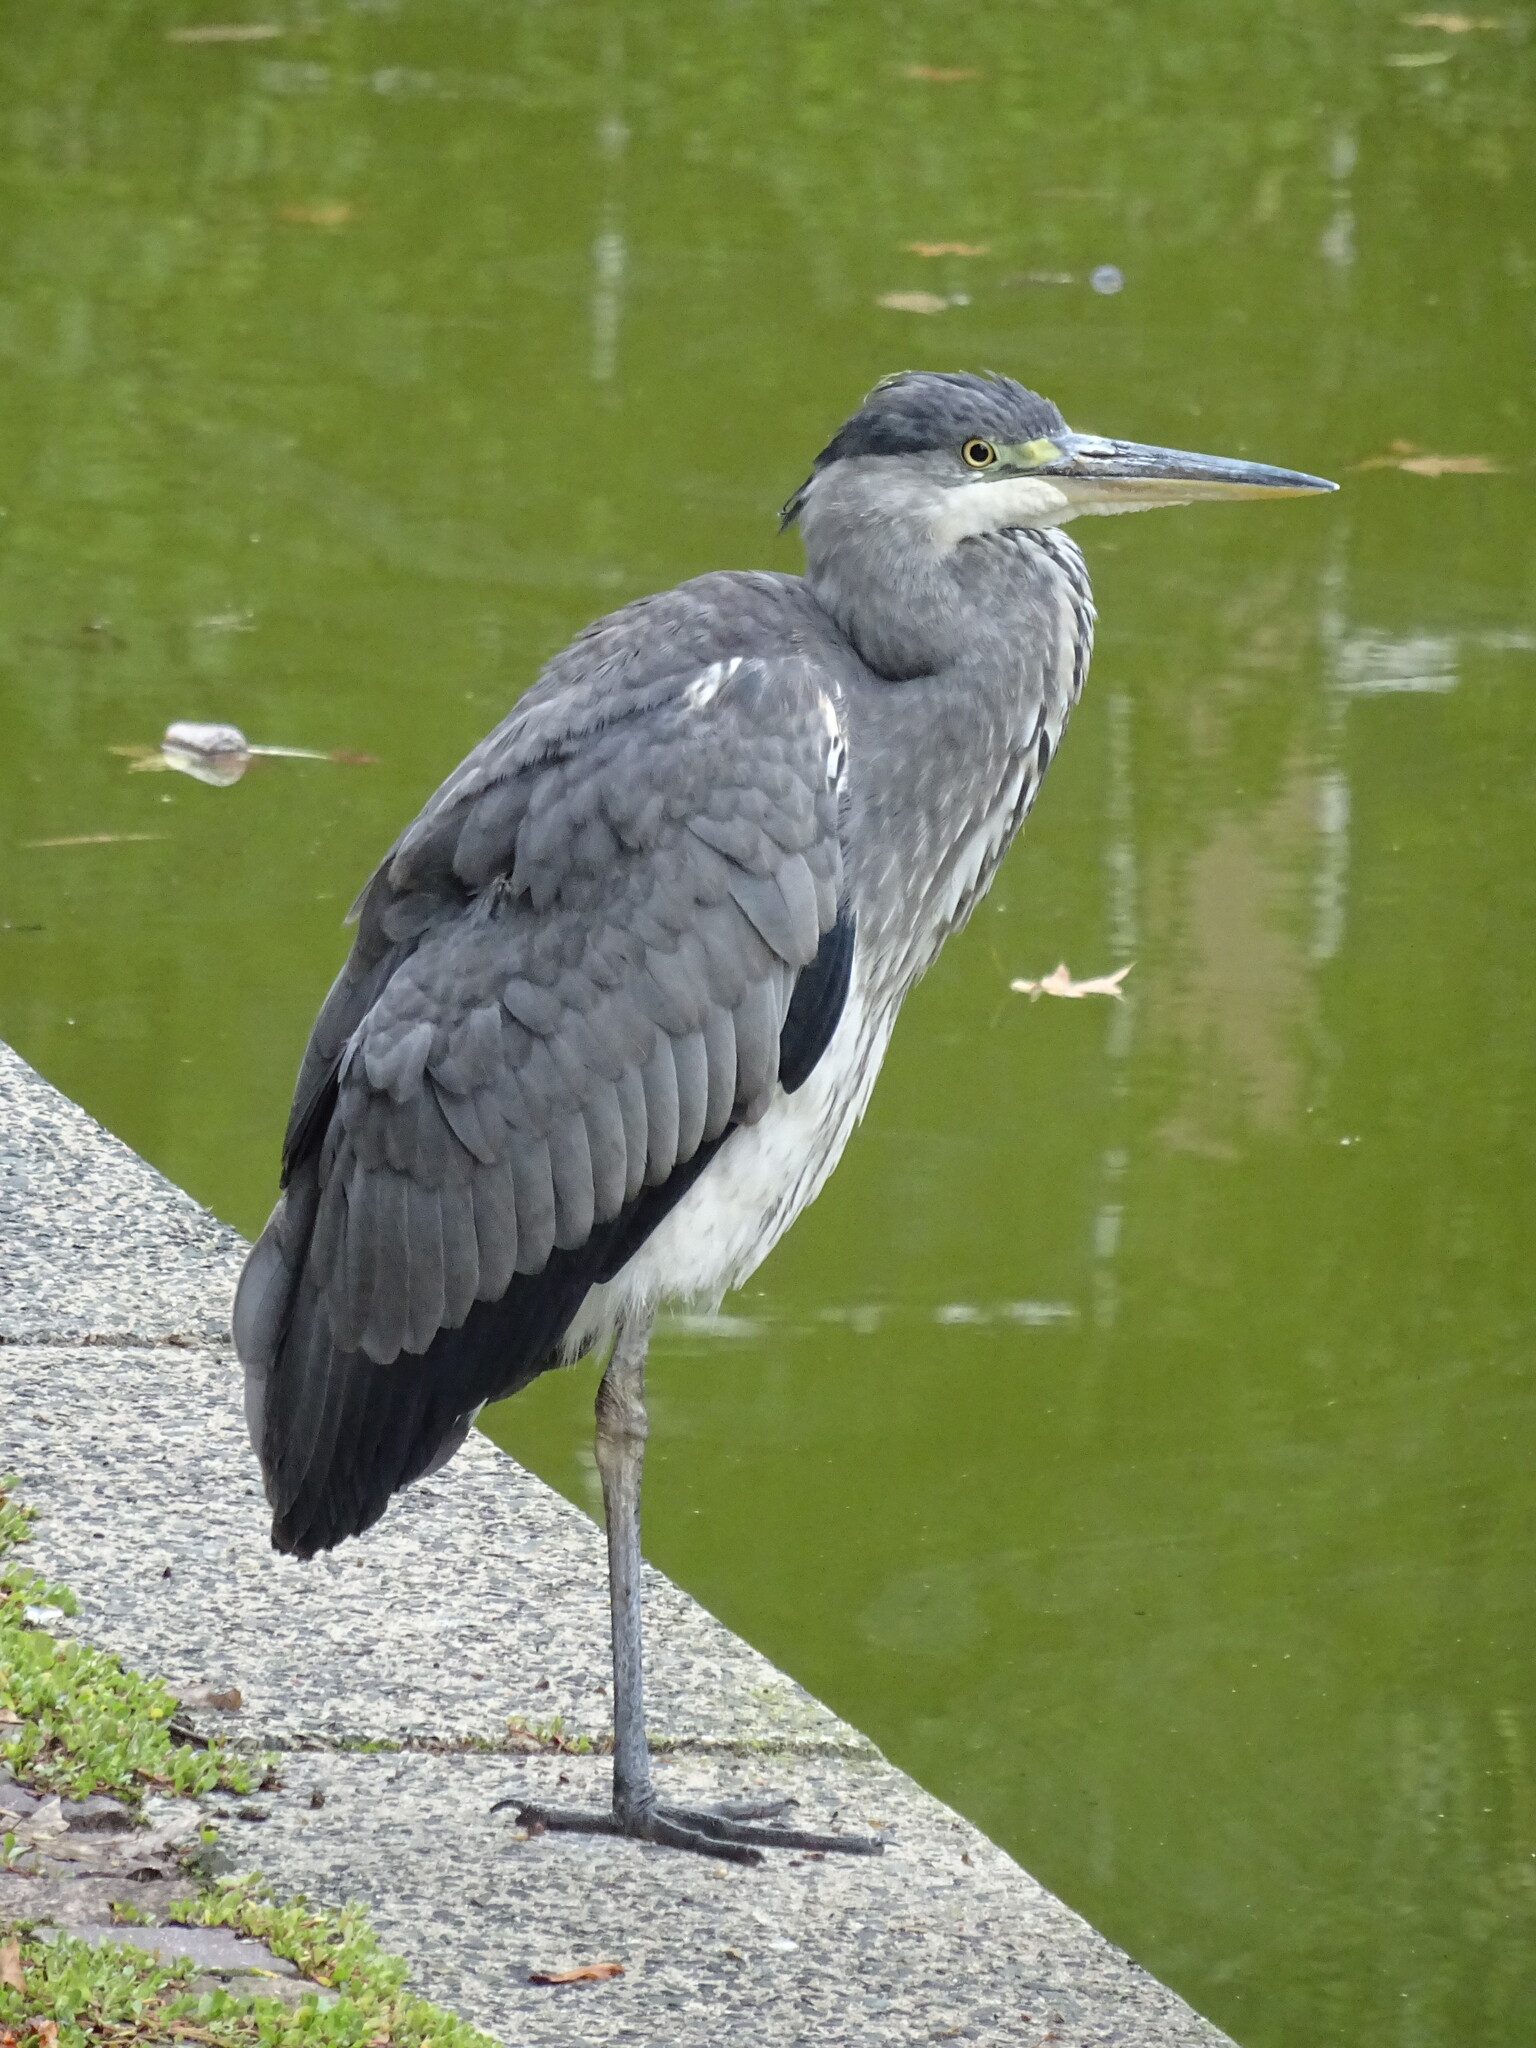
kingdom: Animalia
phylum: Chordata
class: Aves
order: Pelecaniformes
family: Ardeidae
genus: Ardea
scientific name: Ardea cinerea
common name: Grey heron
